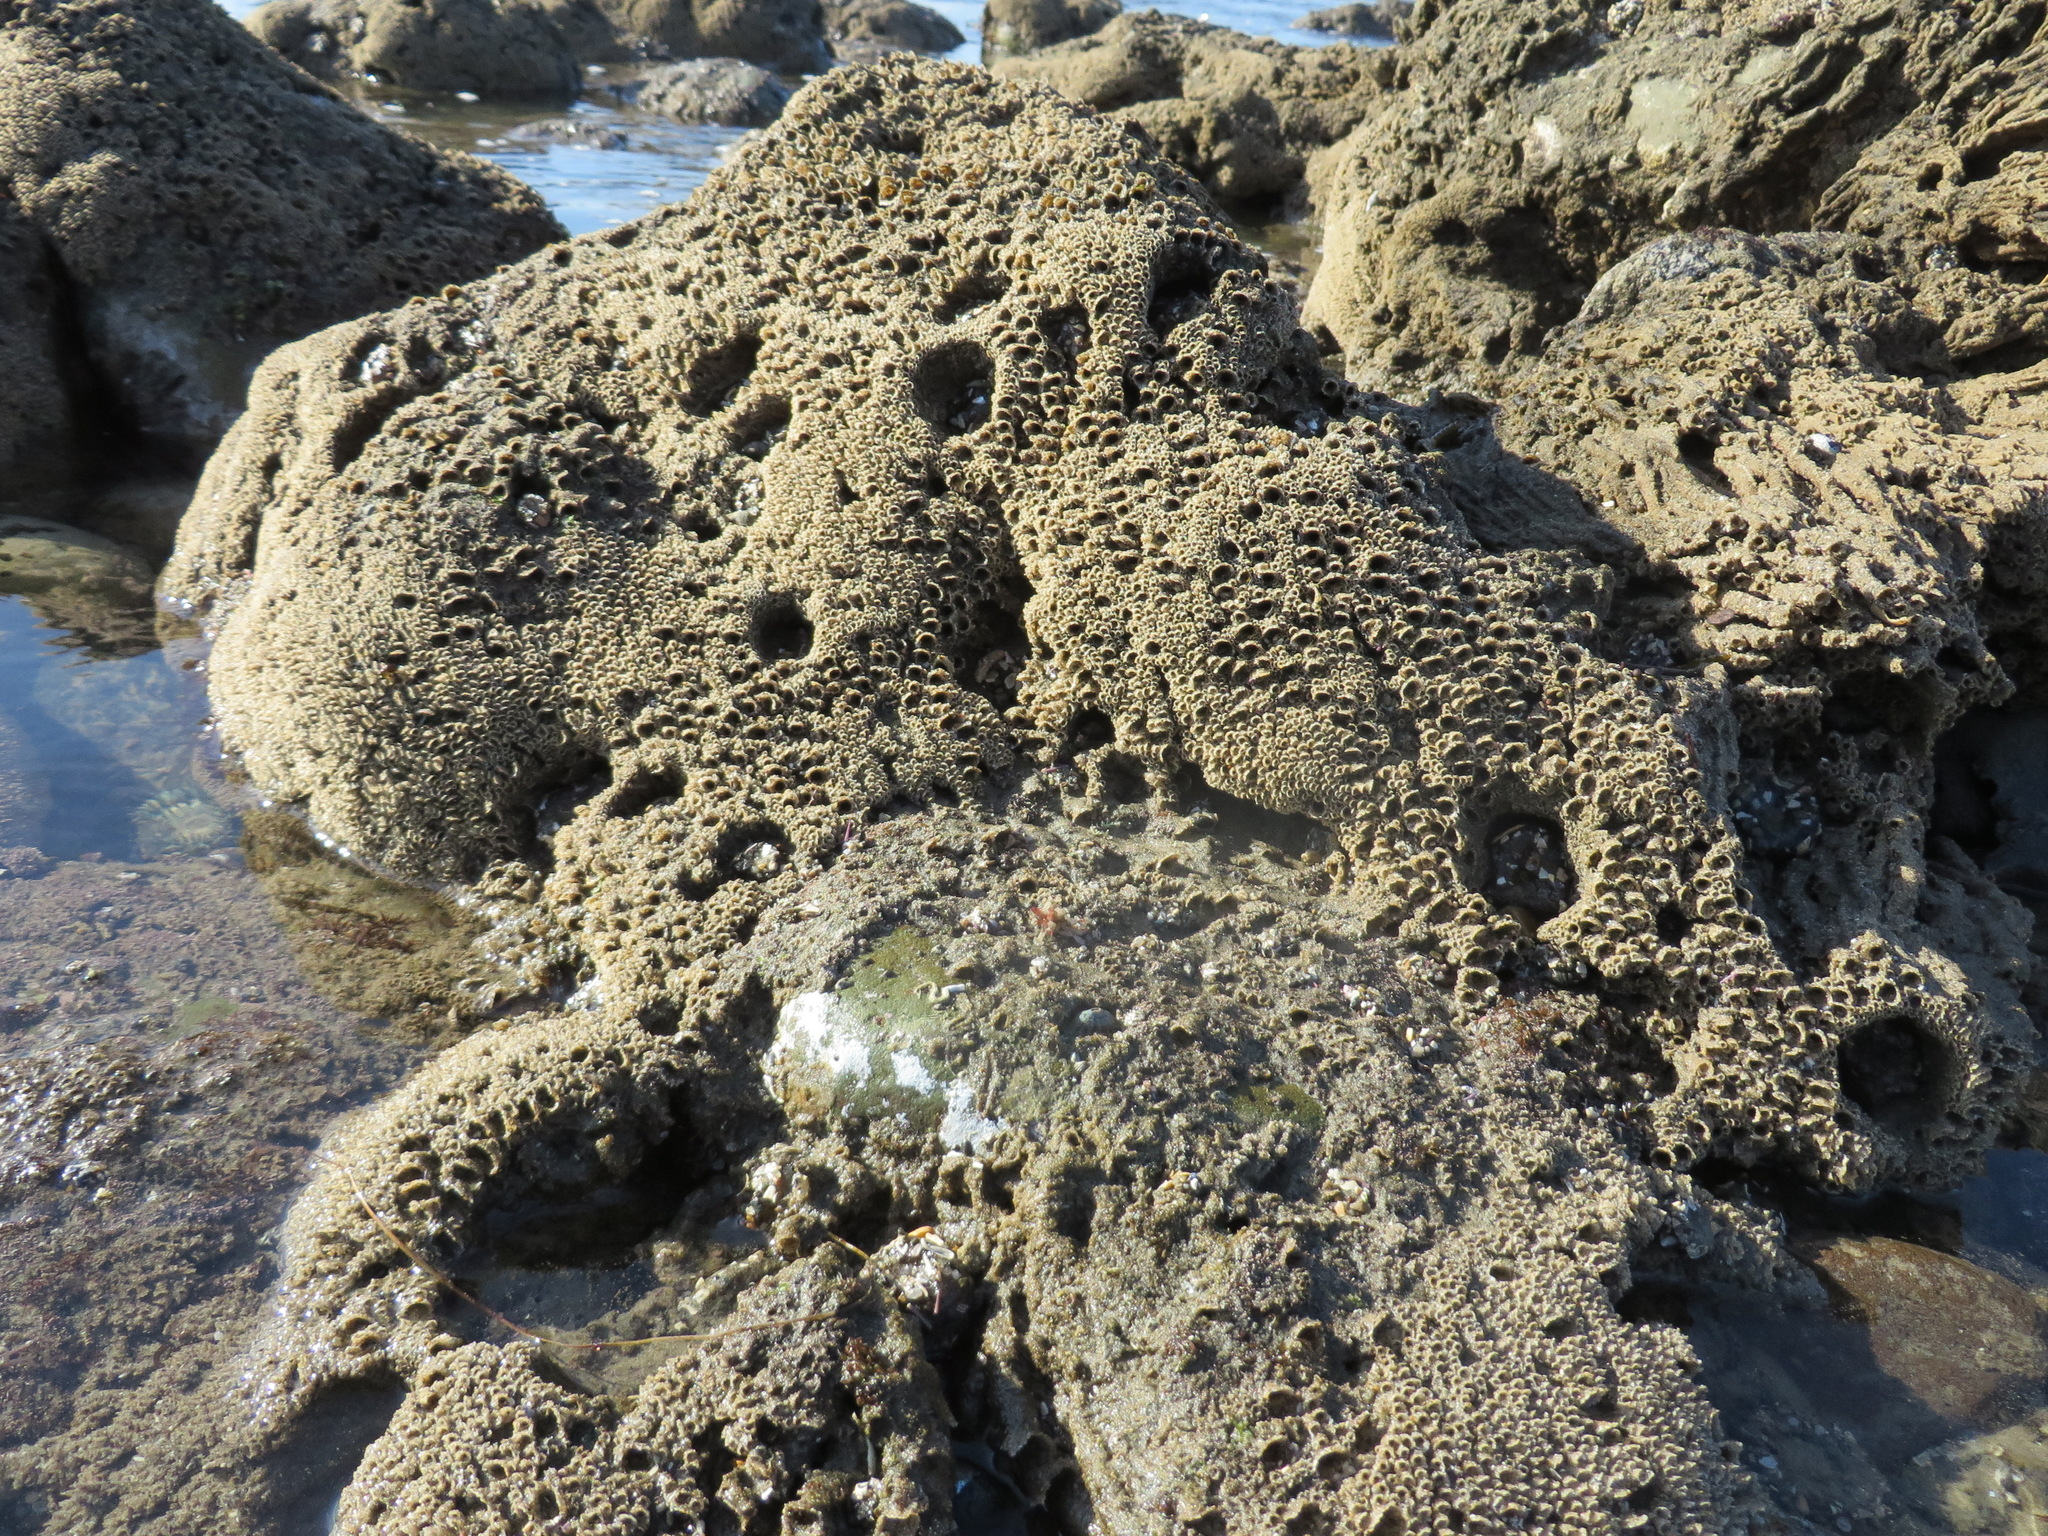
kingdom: Animalia
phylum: Annelida
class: Polychaeta
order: Sabellida
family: Sabellariidae
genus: Phragmatopoma
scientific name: Phragmatopoma californica
